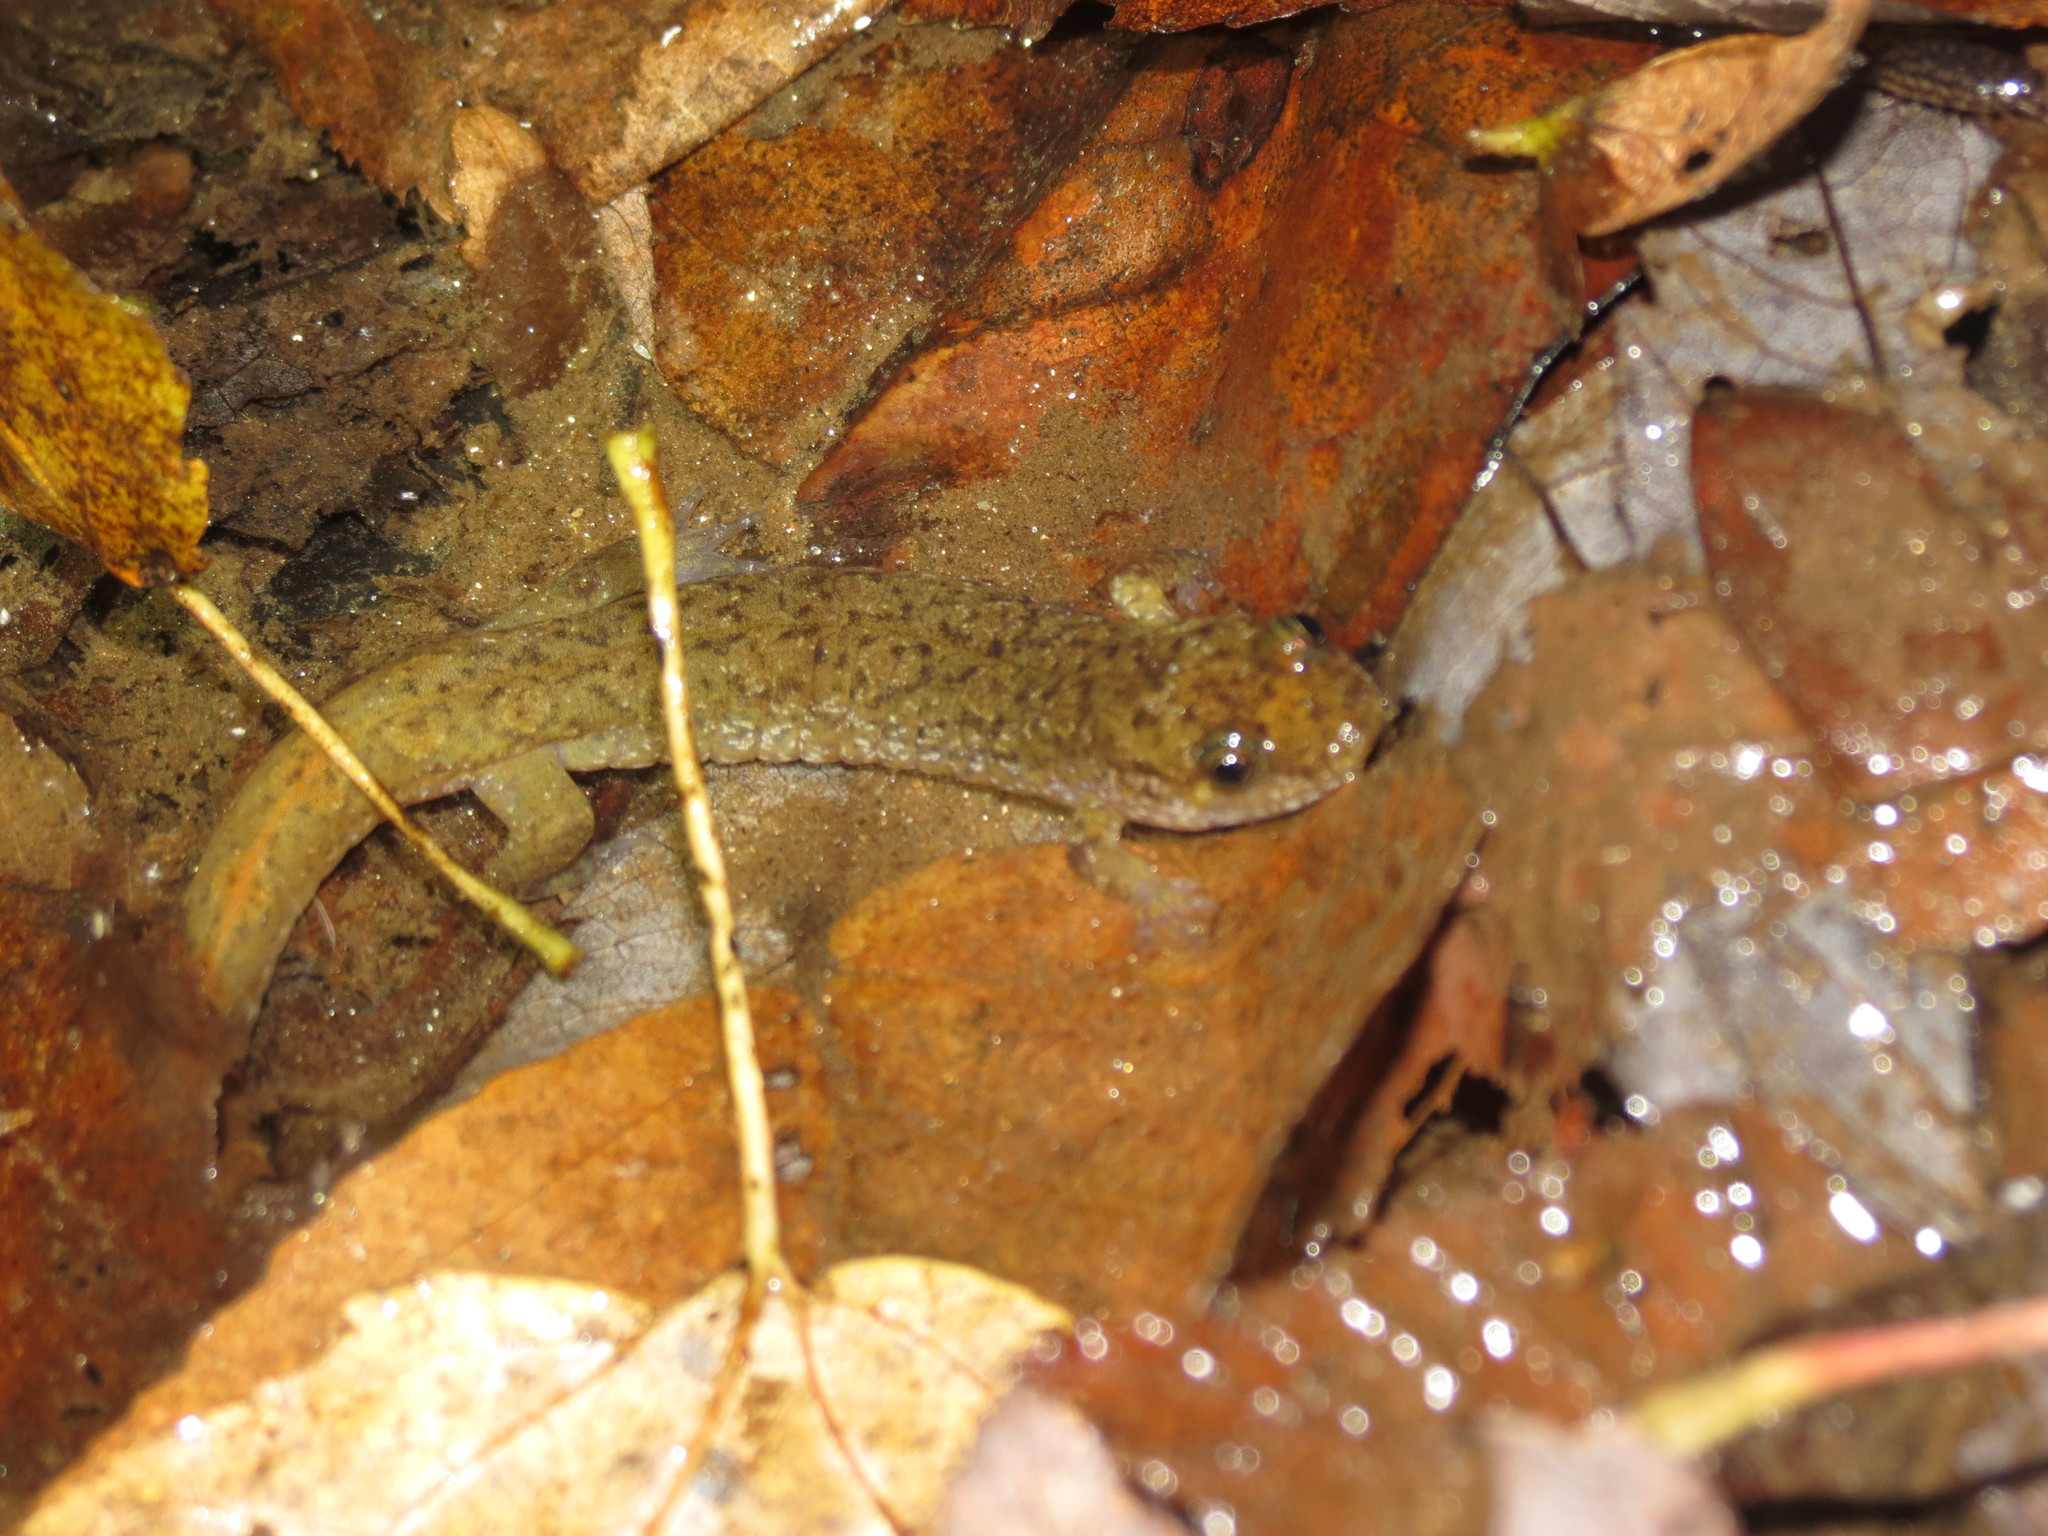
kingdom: Animalia
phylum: Chordata
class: Amphibia
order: Caudata
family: Plethodontidae
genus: Desmognathus
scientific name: Desmognathus monticola
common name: Seal salamander
